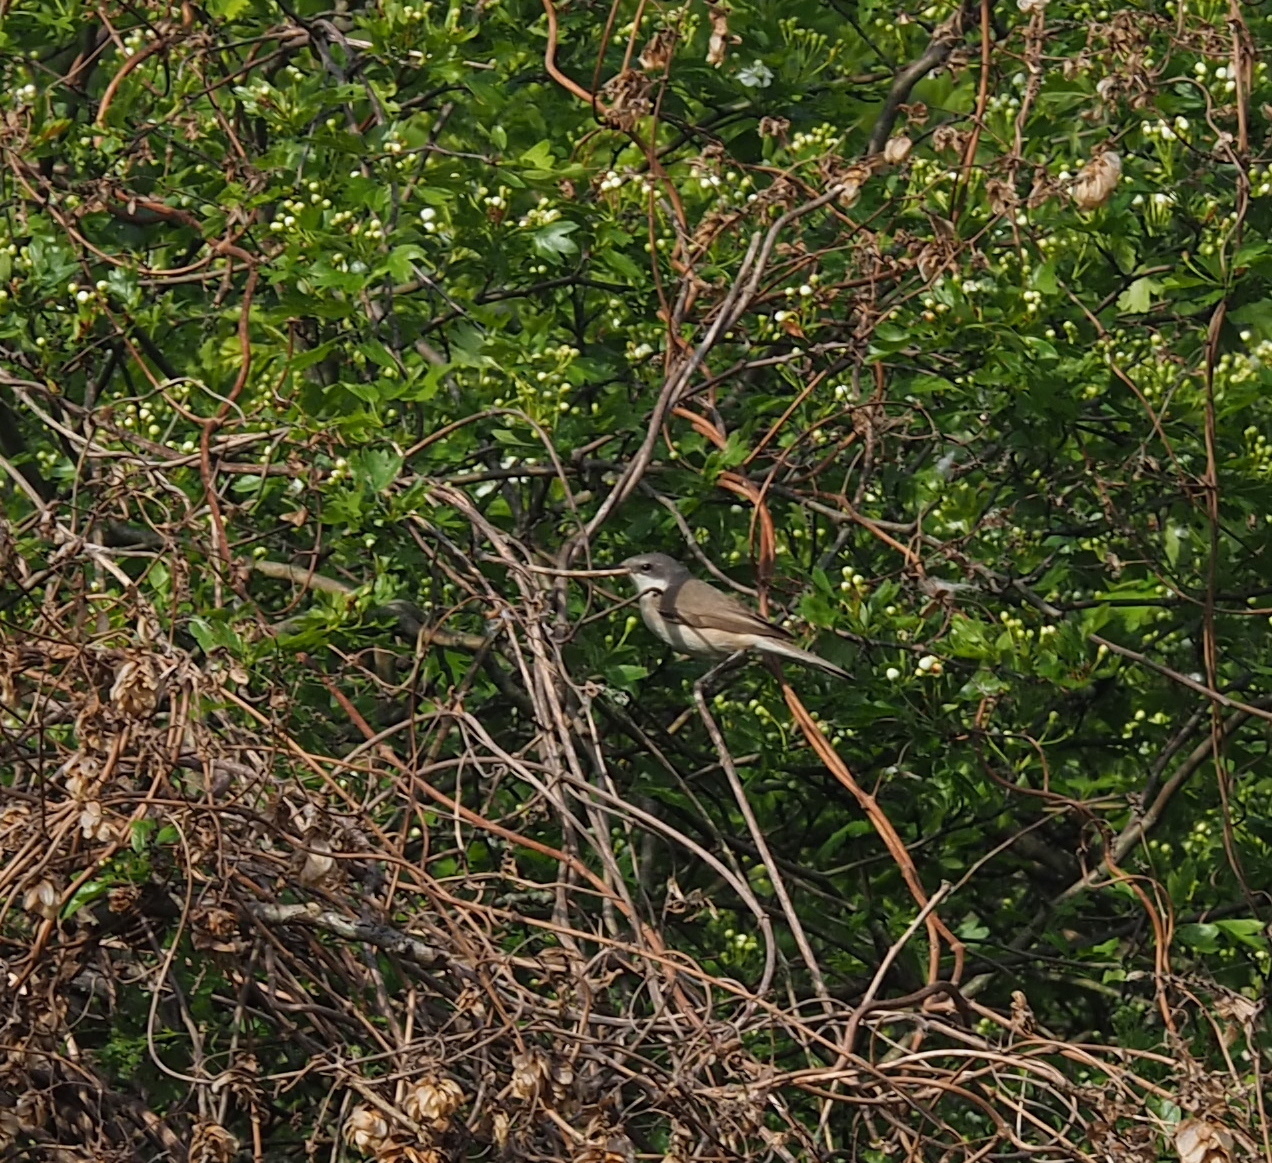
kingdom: Animalia
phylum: Chordata
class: Aves
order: Passeriformes
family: Sylviidae
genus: Sylvia
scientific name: Sylvia curruca
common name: Lesser whitethroat
